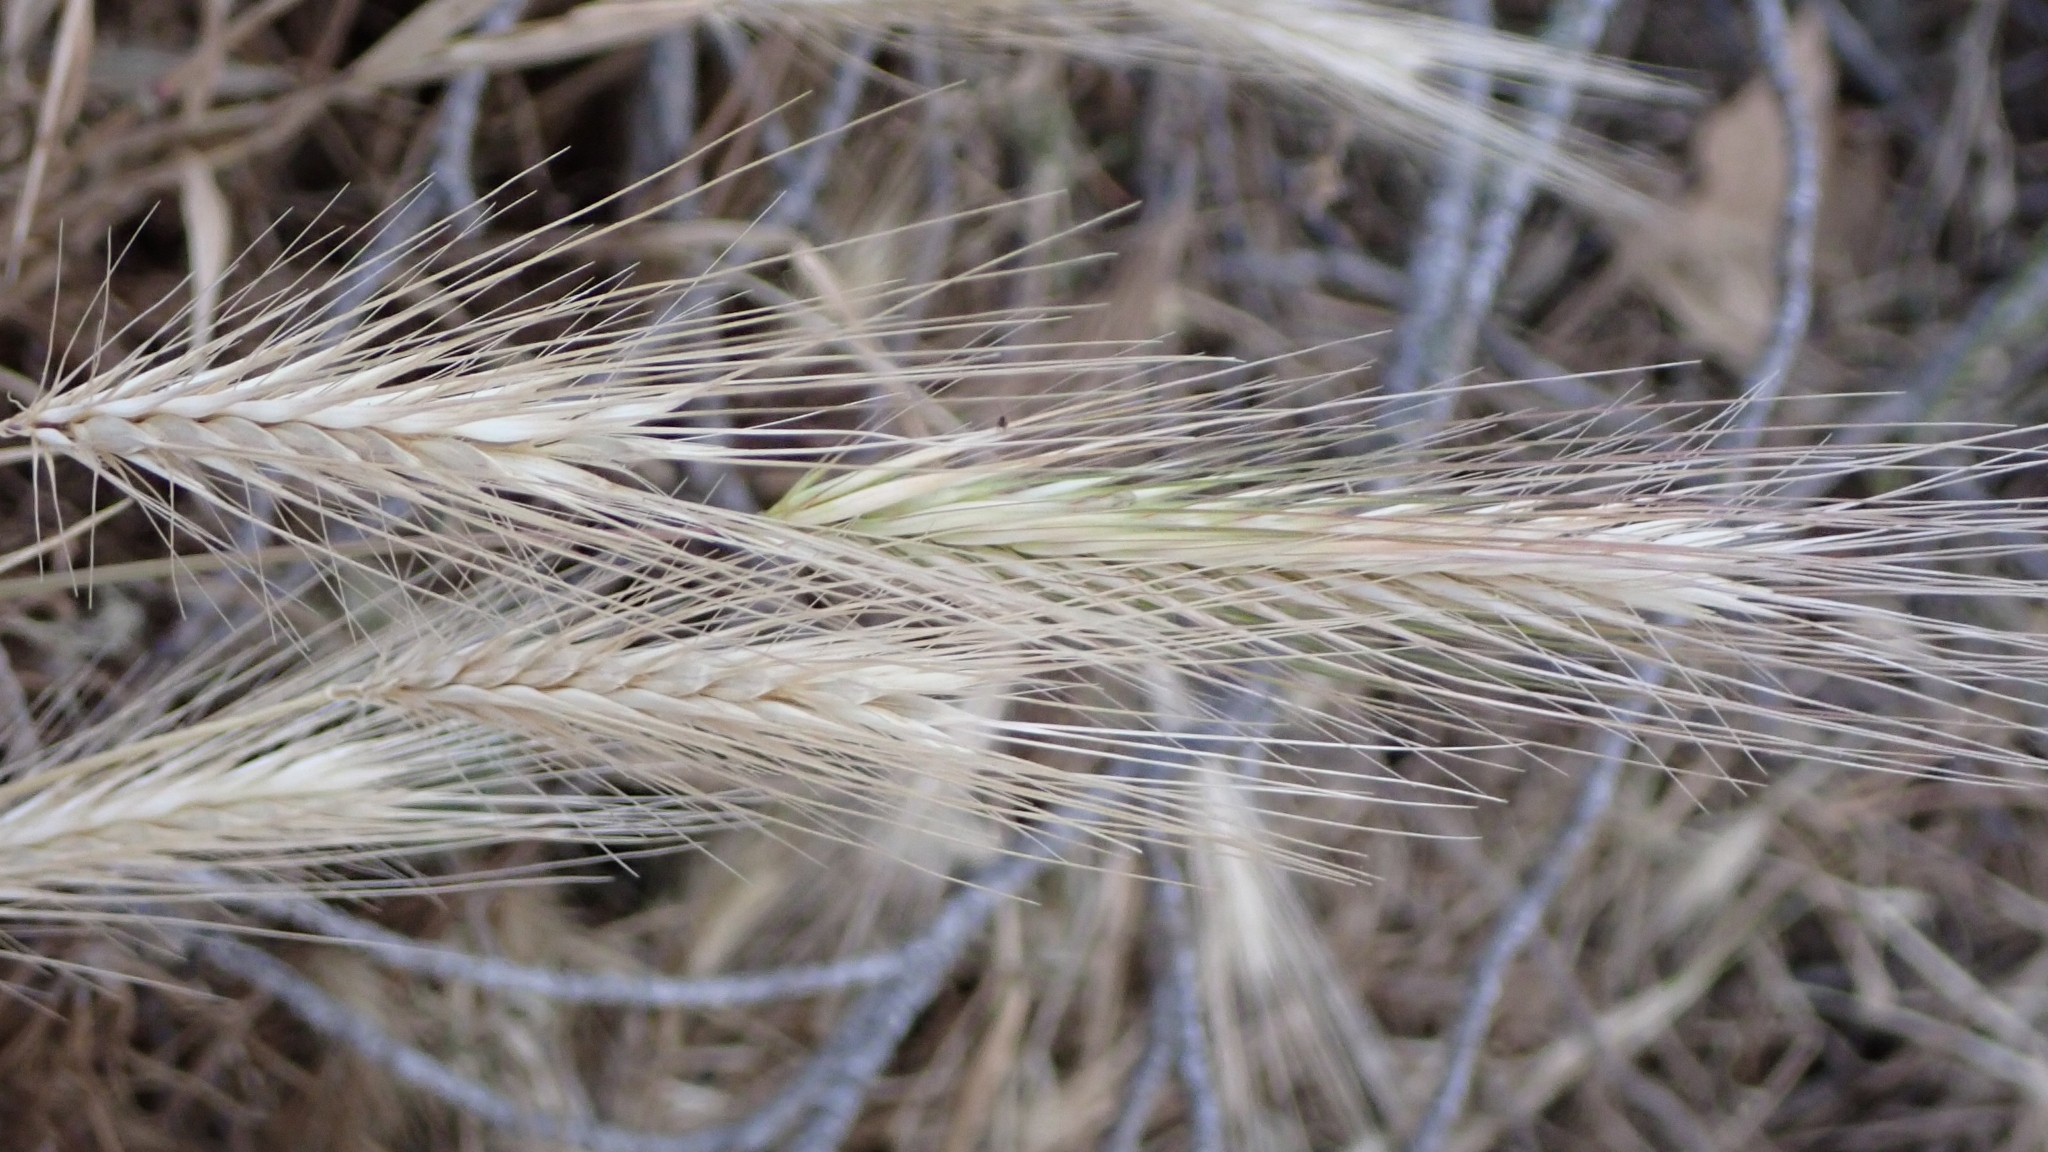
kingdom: Plantae
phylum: Tracheophyta
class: Liliopsida
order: Poales
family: Poaceae
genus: Hordeum
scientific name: Hordeum murinum
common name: Wall barley
